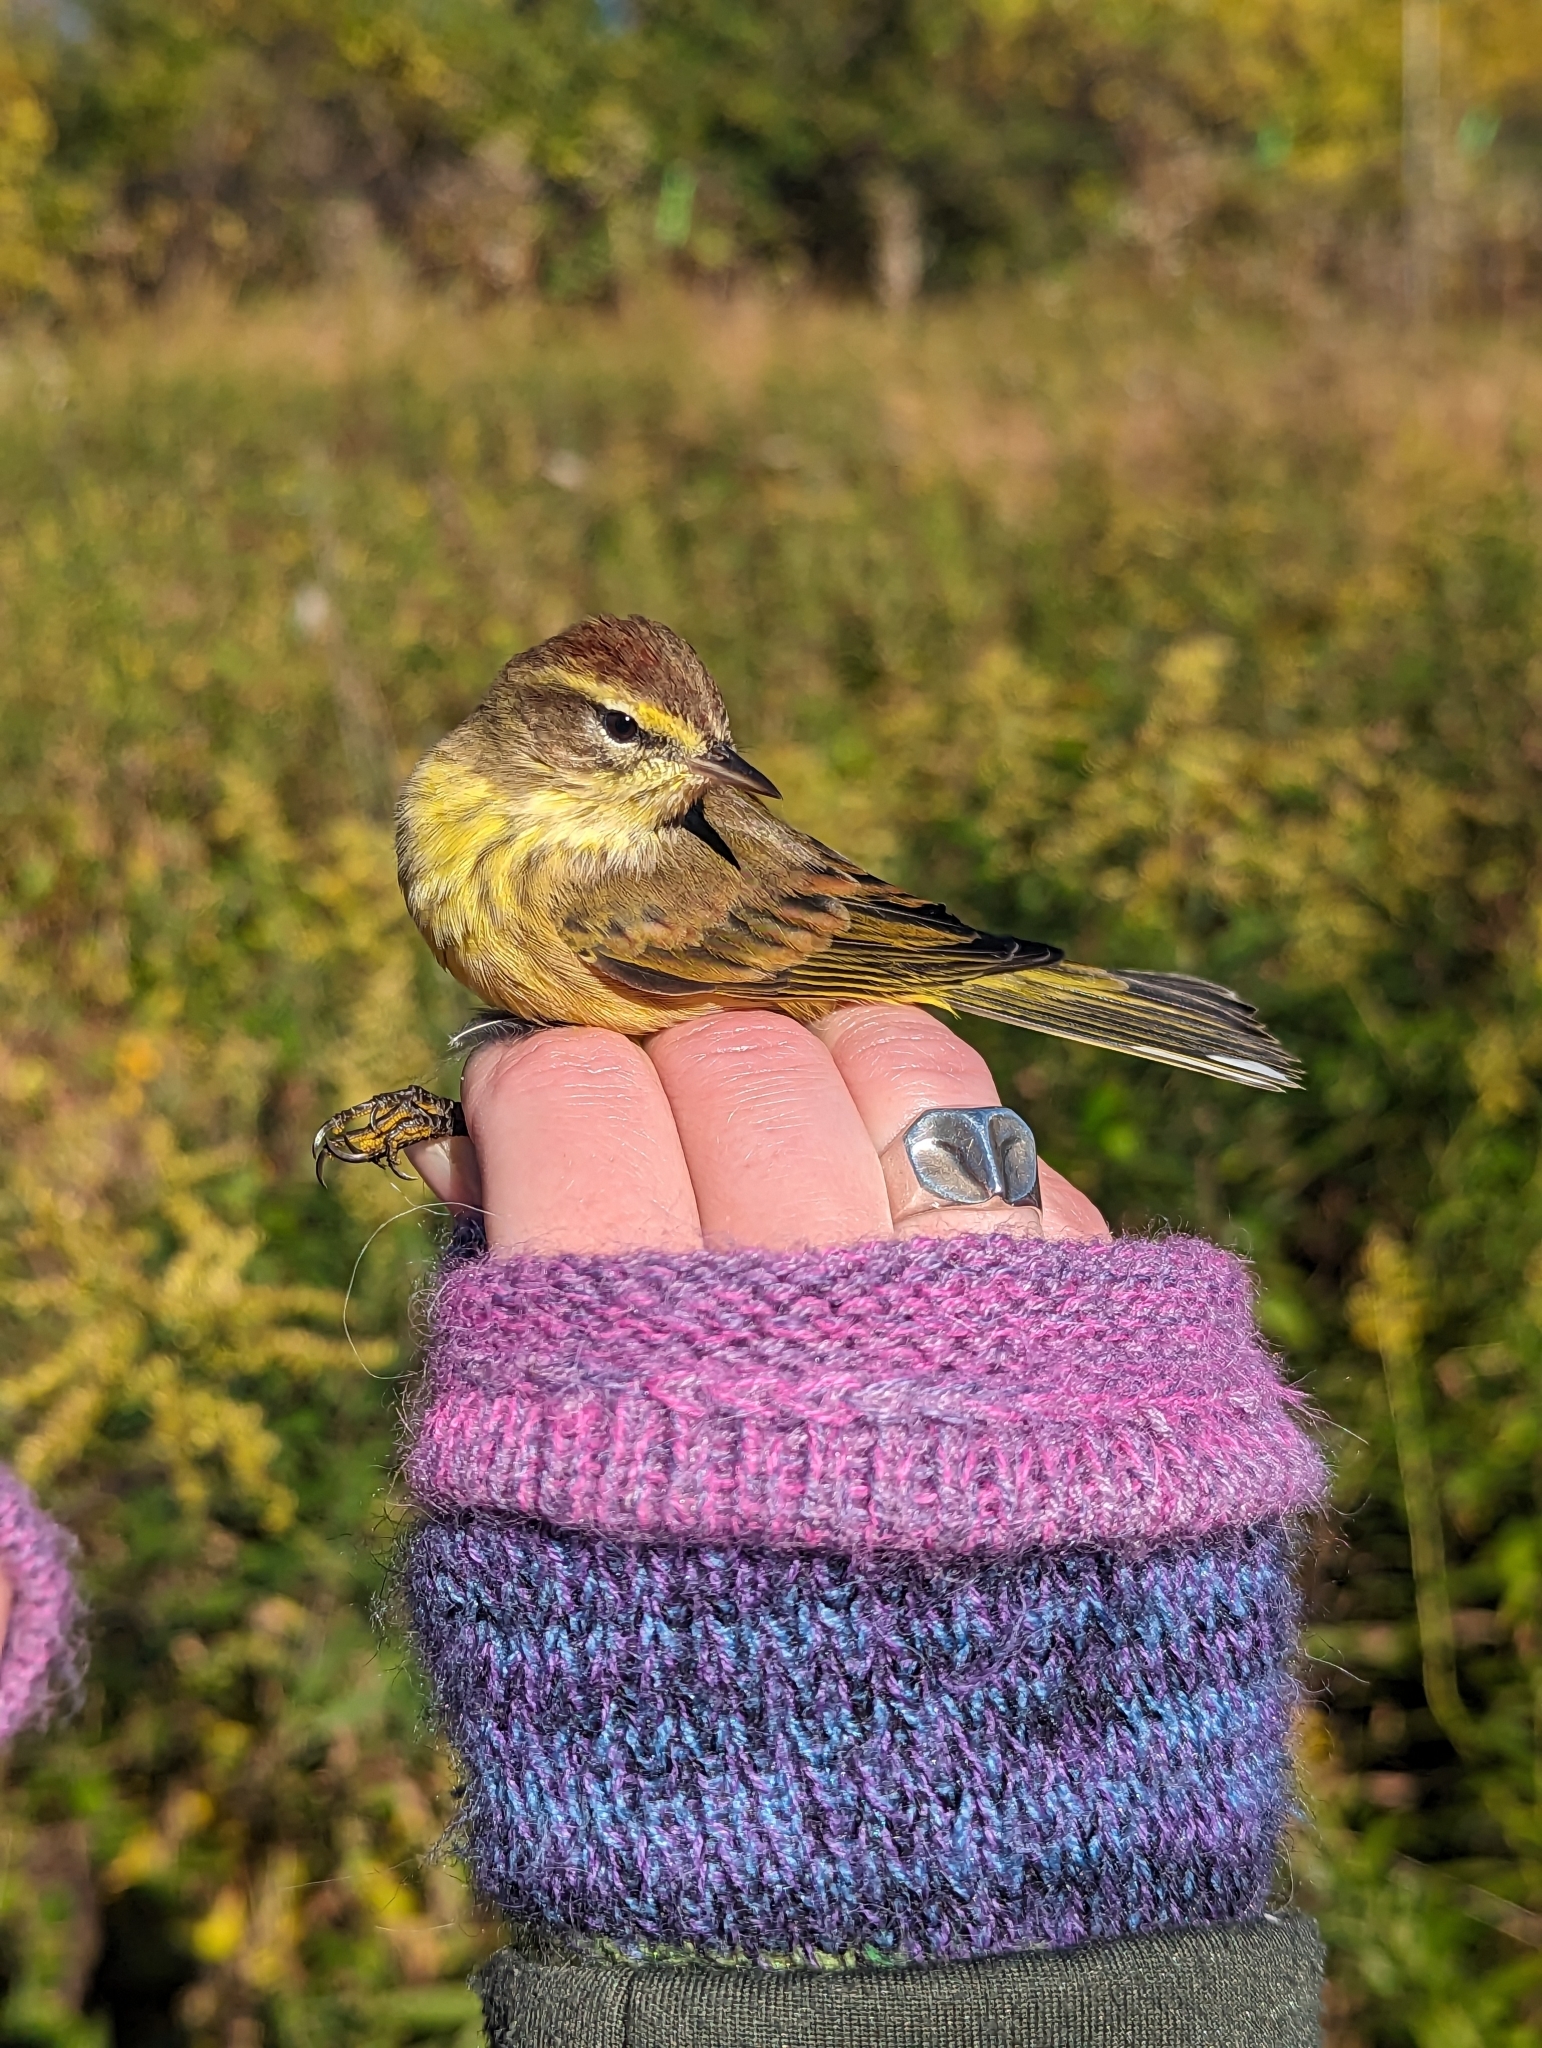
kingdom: Animalia
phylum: Chordata
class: Aves
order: Passeriformes
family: Parulidae
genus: Setophaga
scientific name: Setophaga palmarum
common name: Palm warbler
